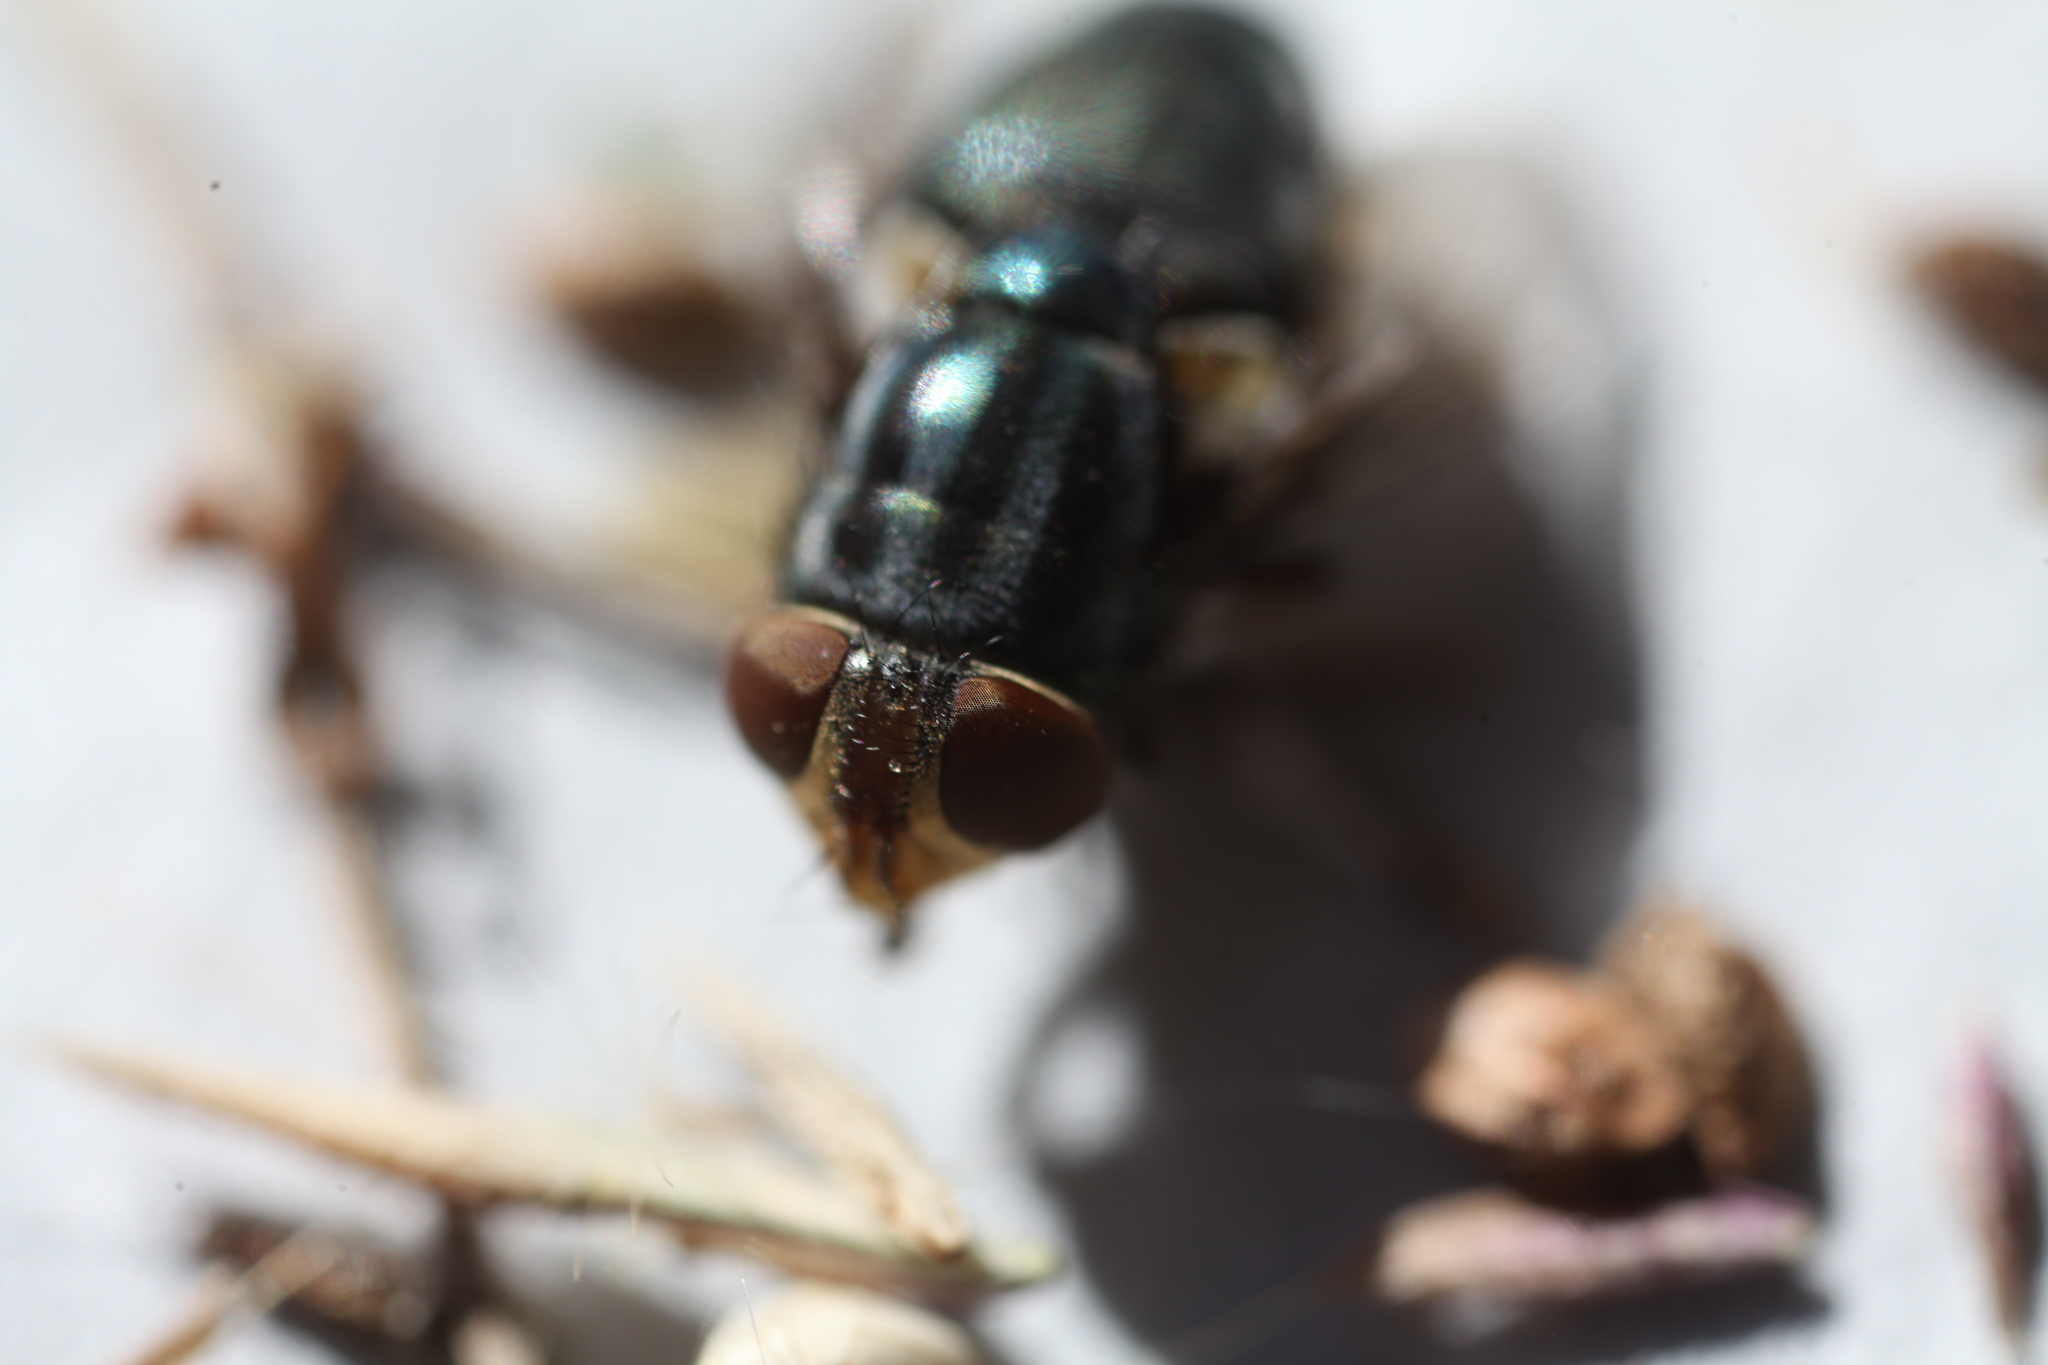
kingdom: Animalia
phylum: Arthropoda
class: Insecta
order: Diptera
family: Calliphoridae
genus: Cochliomyia
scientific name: Cochliomyia macellaria
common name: Secondary screwworm
